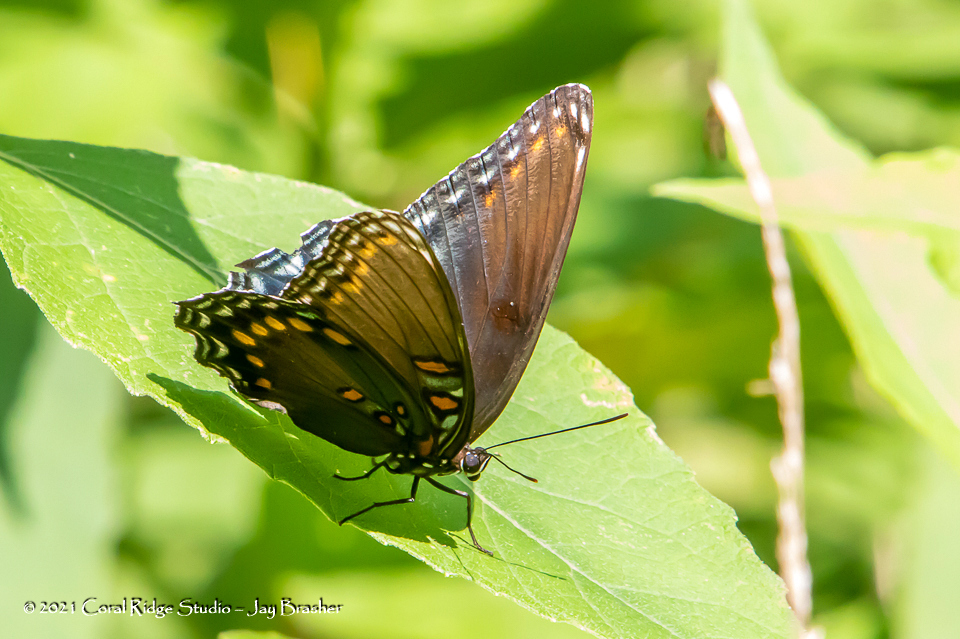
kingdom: Animalia
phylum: Arthropoda
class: Insecta
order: Lepidoptera
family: Nymphalidae
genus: Limenitis
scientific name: Limenitis astyanax
